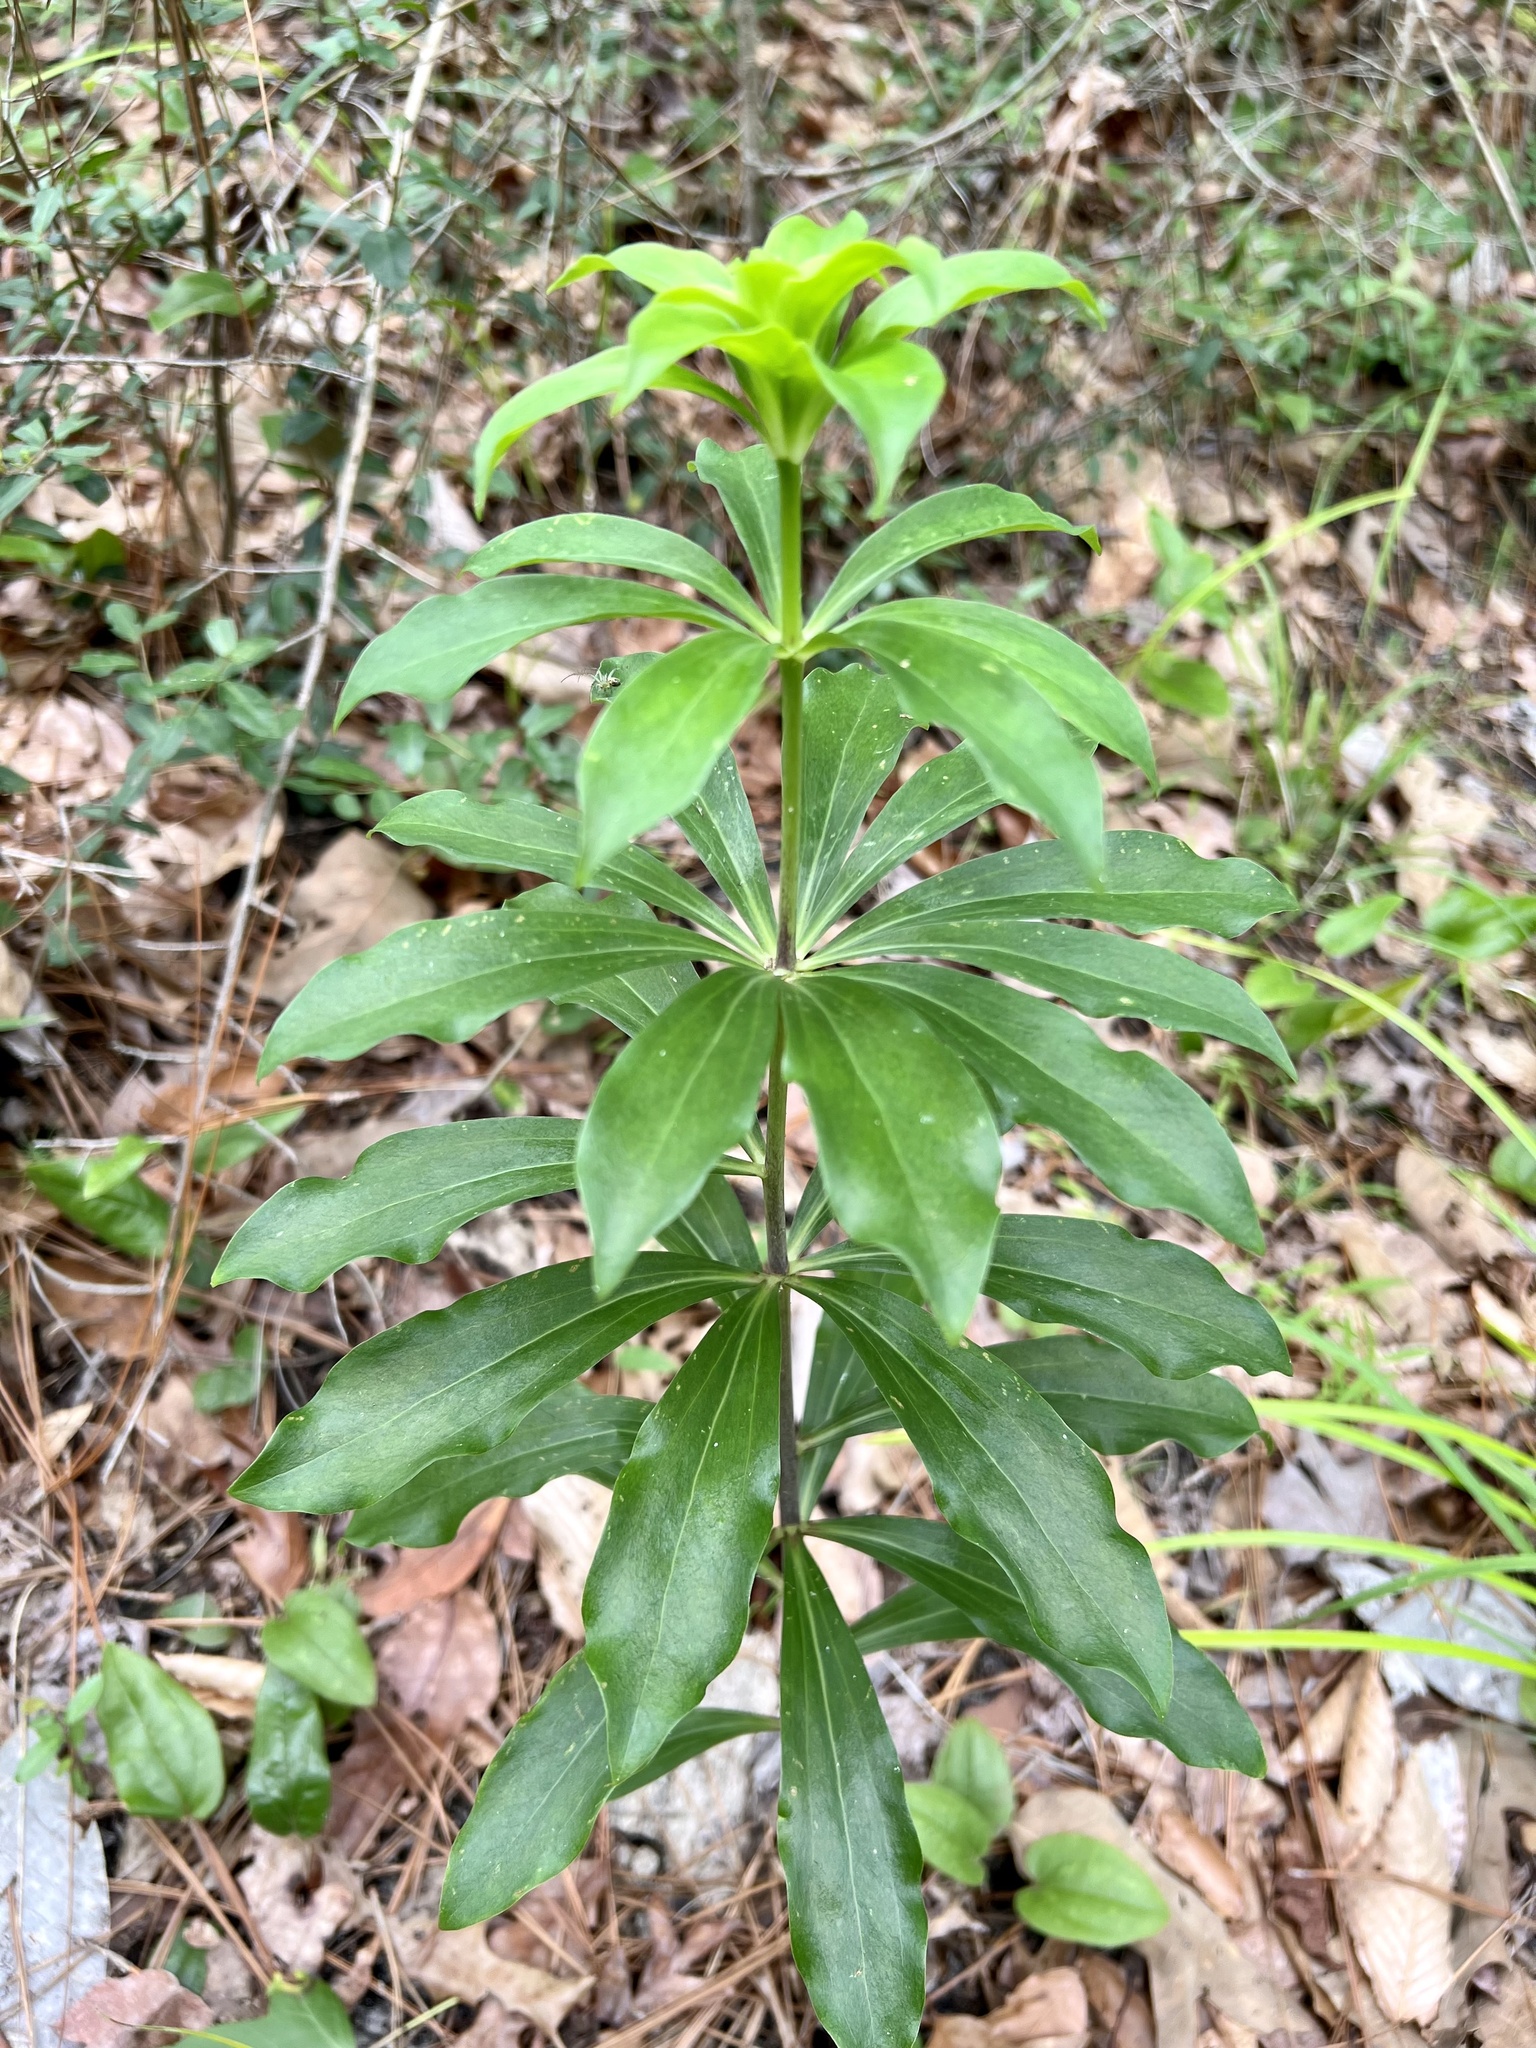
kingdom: Plantae
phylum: Tracheophyta
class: Liliopsida
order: Liliales
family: Liliaceae
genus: Lilium
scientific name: Lilium michauxii
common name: Carolina lily
